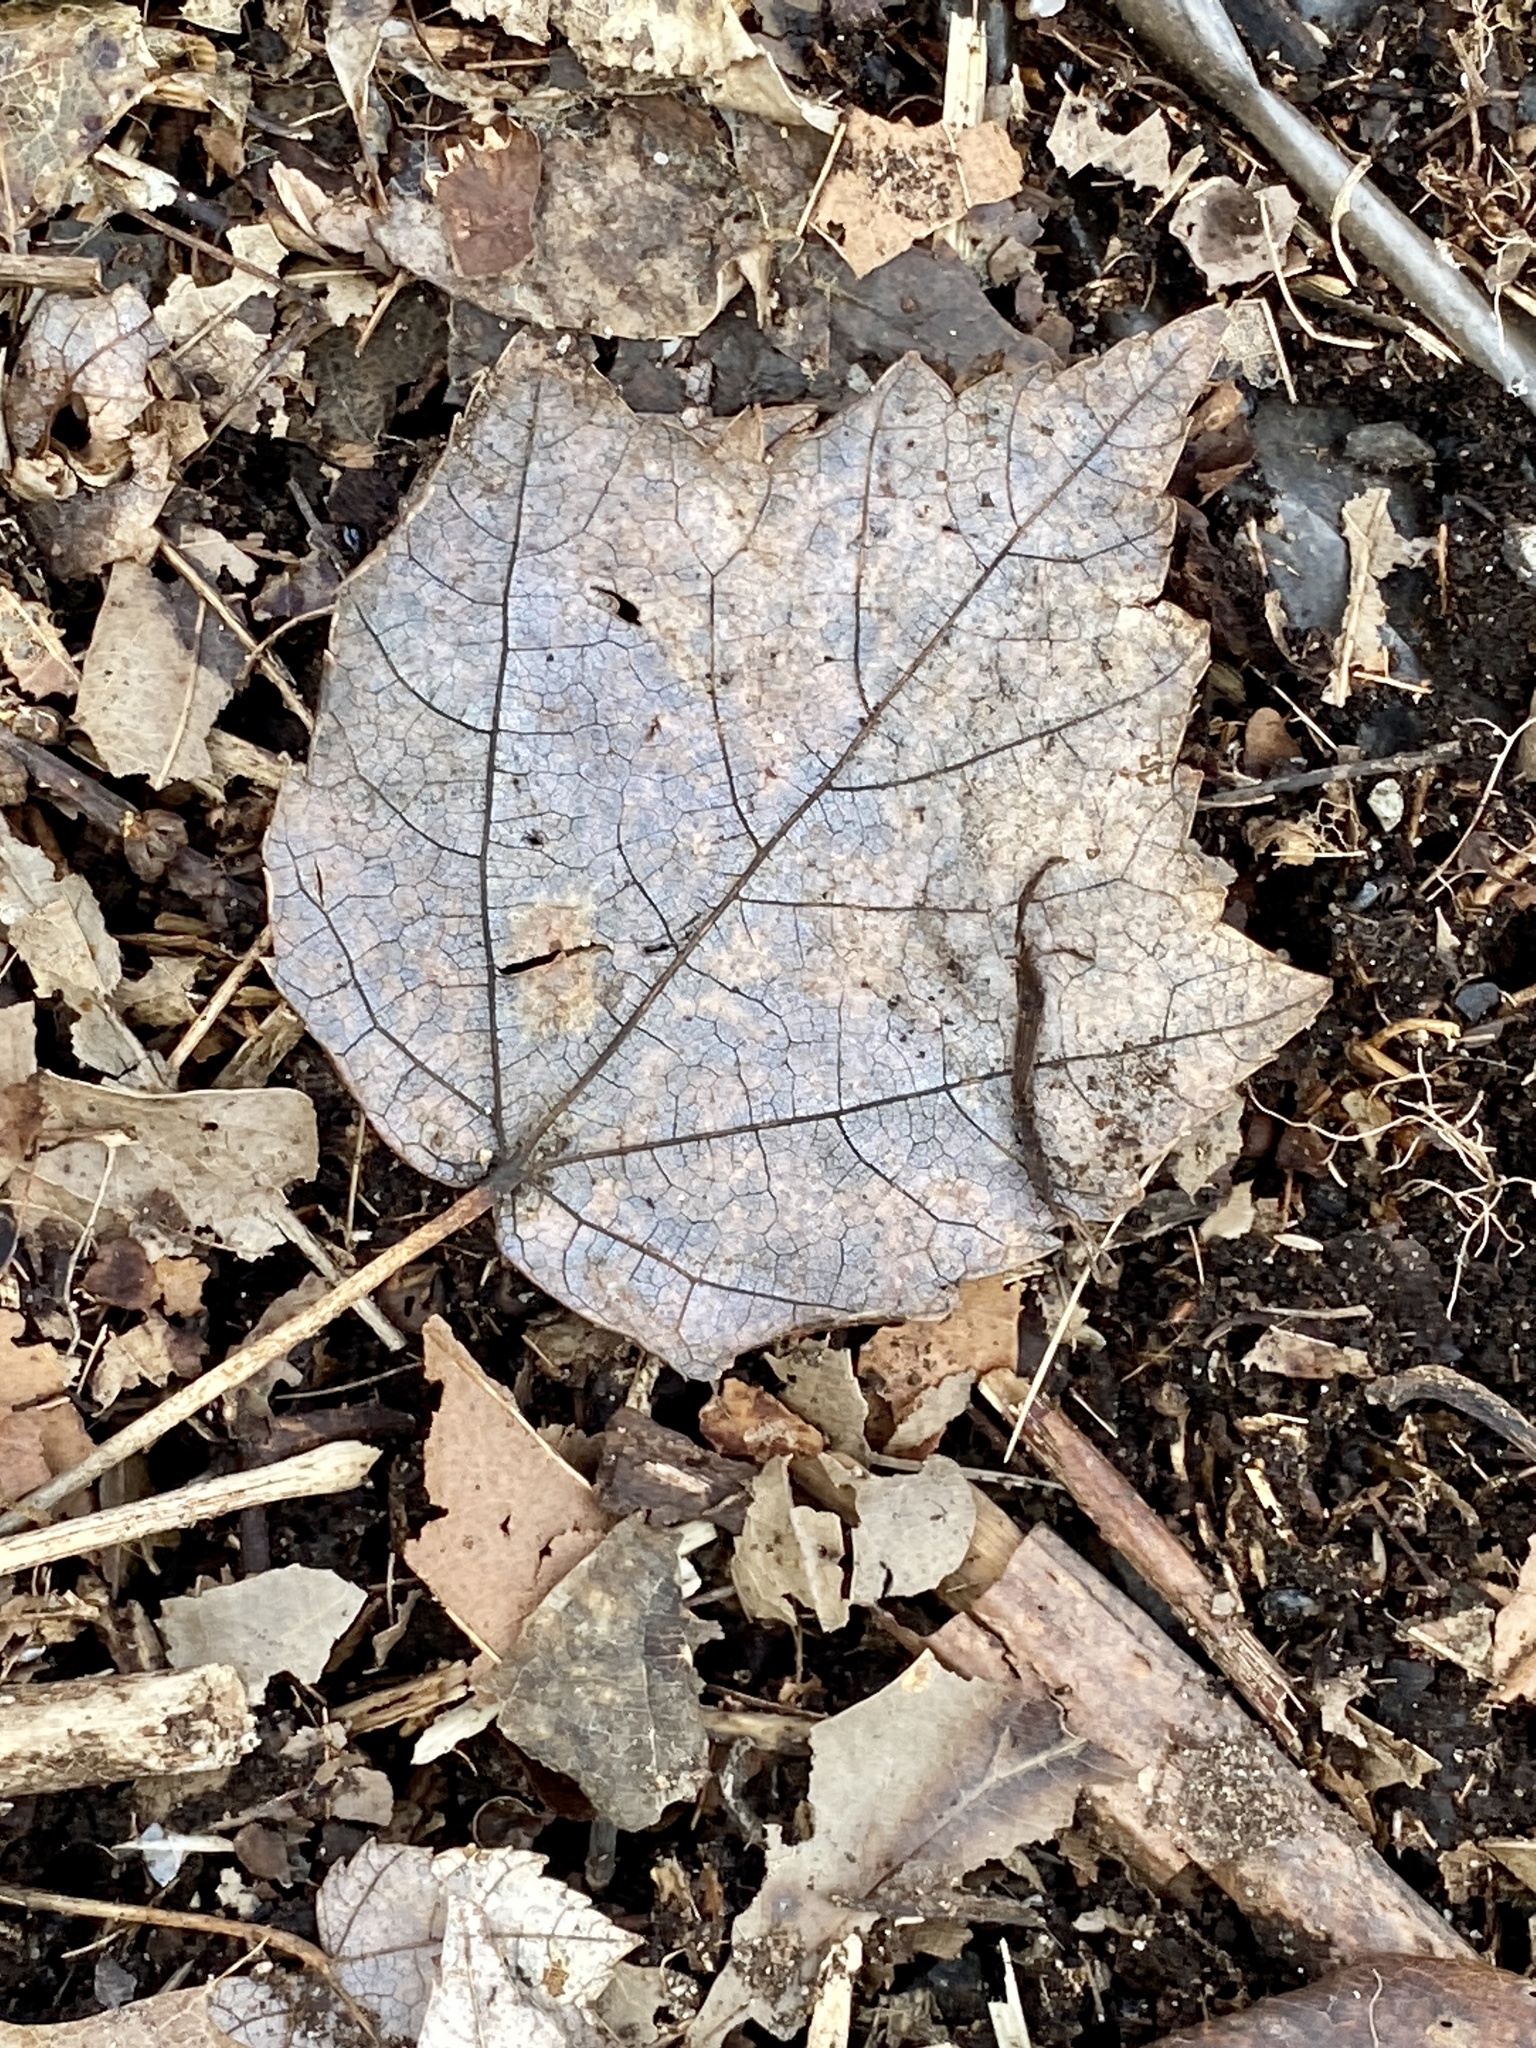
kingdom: Plantae
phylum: Tracheophyta
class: Magnoliopsida
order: Sapindales
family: Sapindaceae
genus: Acer
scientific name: Acer rubrum
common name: Red maple
